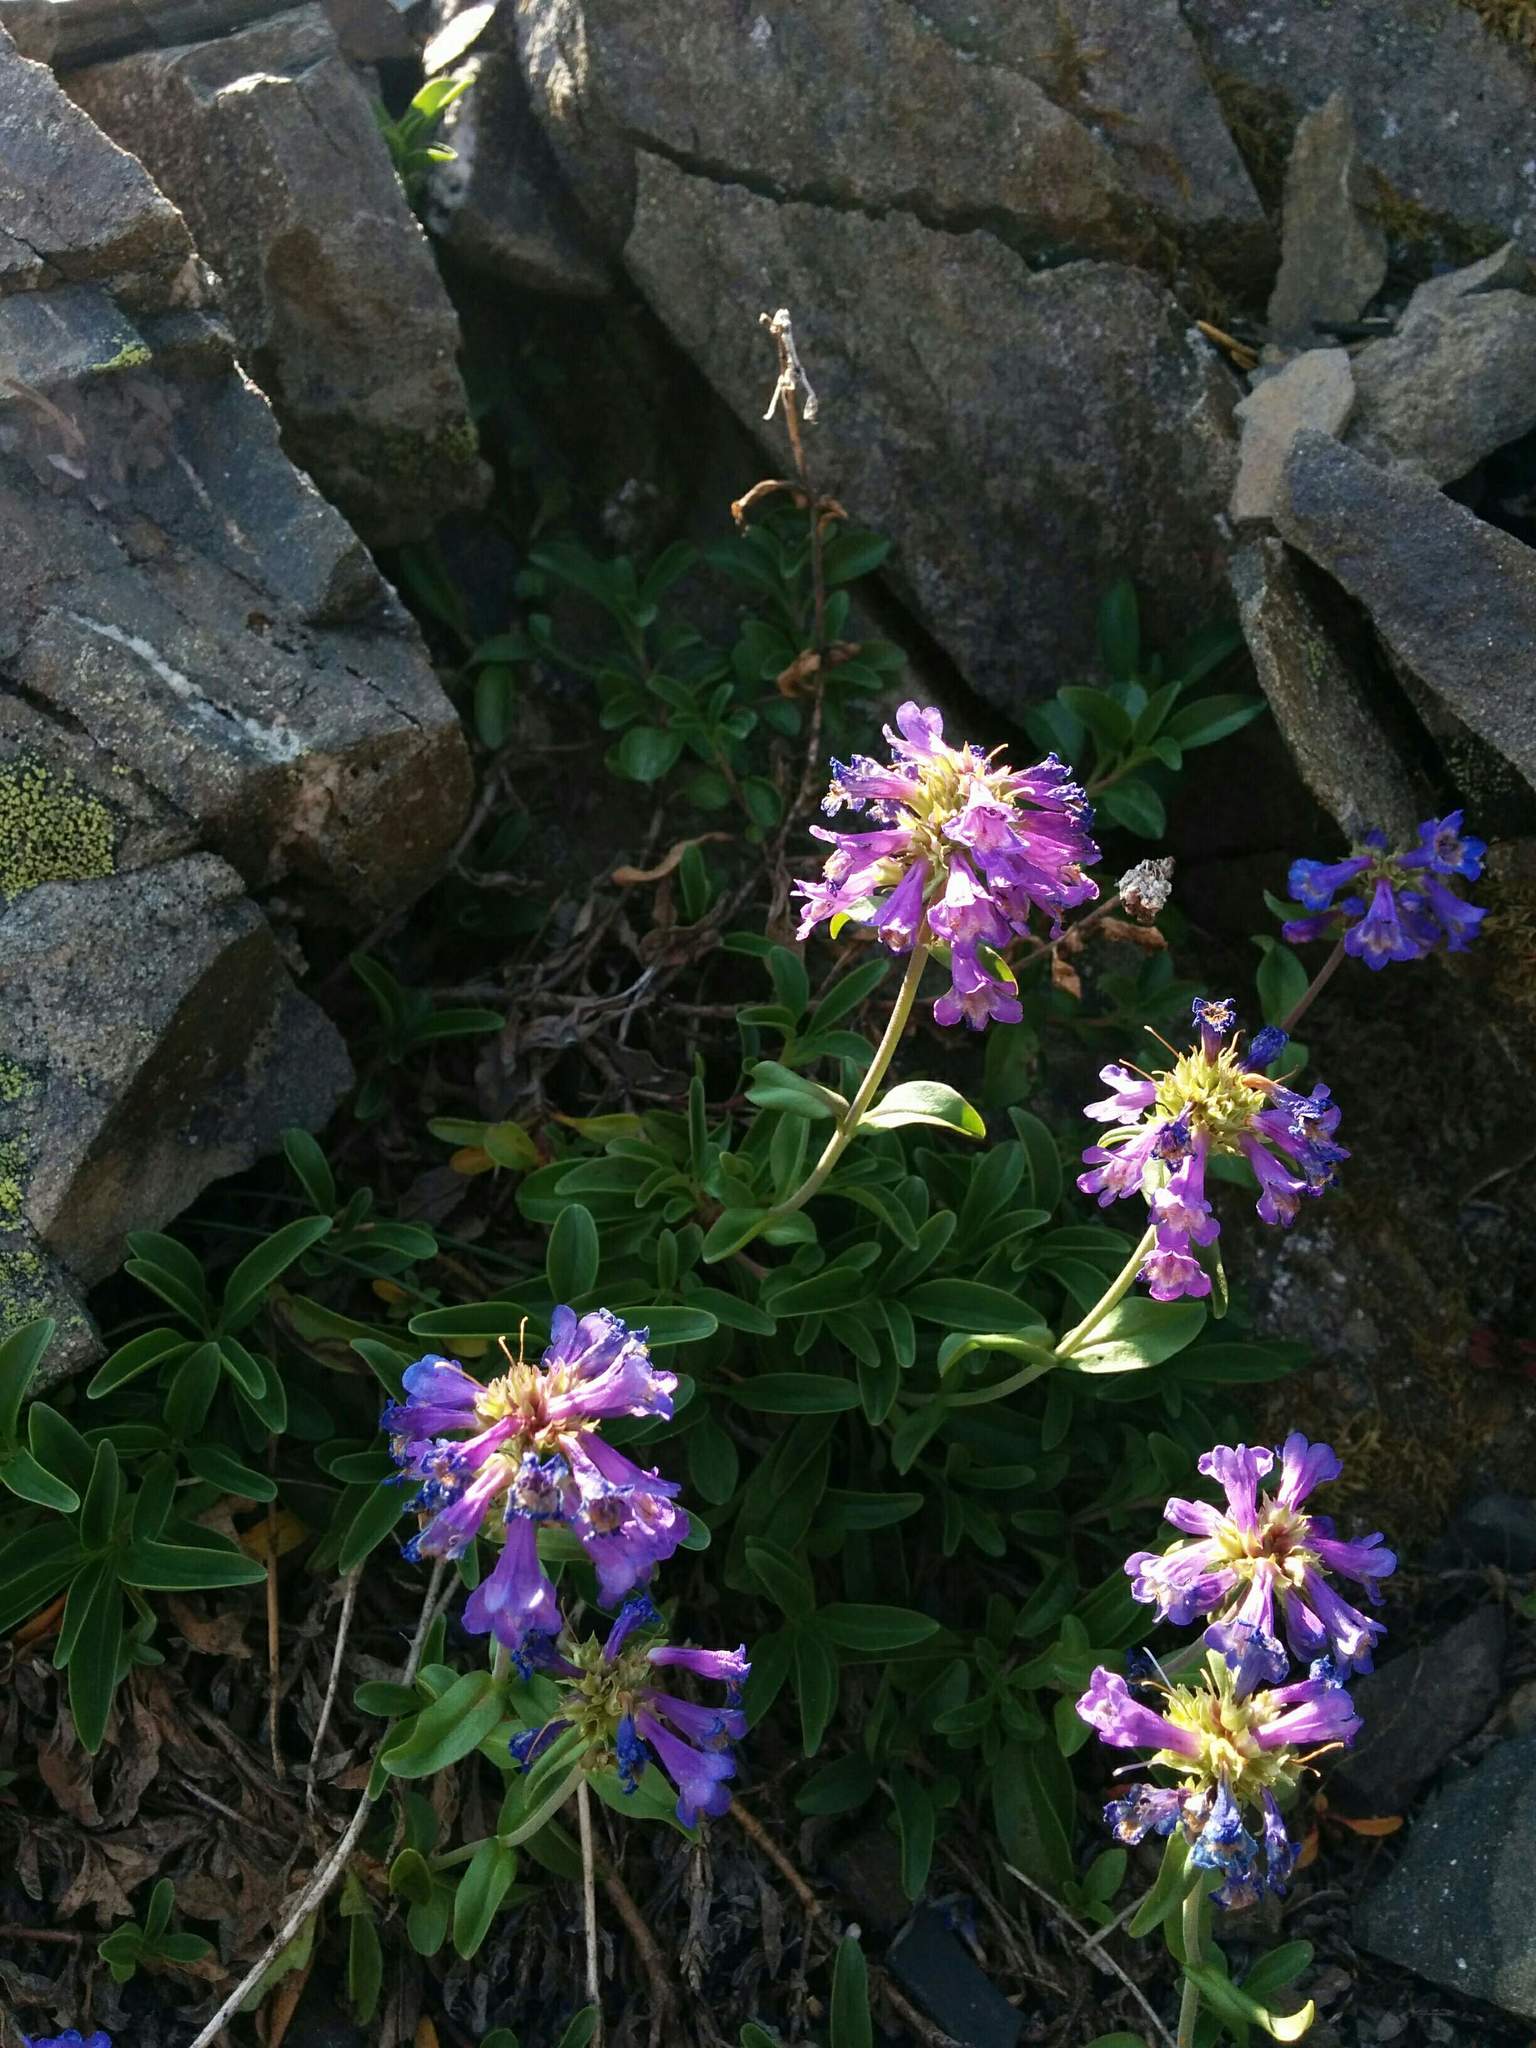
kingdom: Plantae
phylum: Tracheophyta
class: Magnoliopsida
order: Lamiales
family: Plantaginaceae
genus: Penstemon
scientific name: Penstemon procerus
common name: Small-flower penstemon
